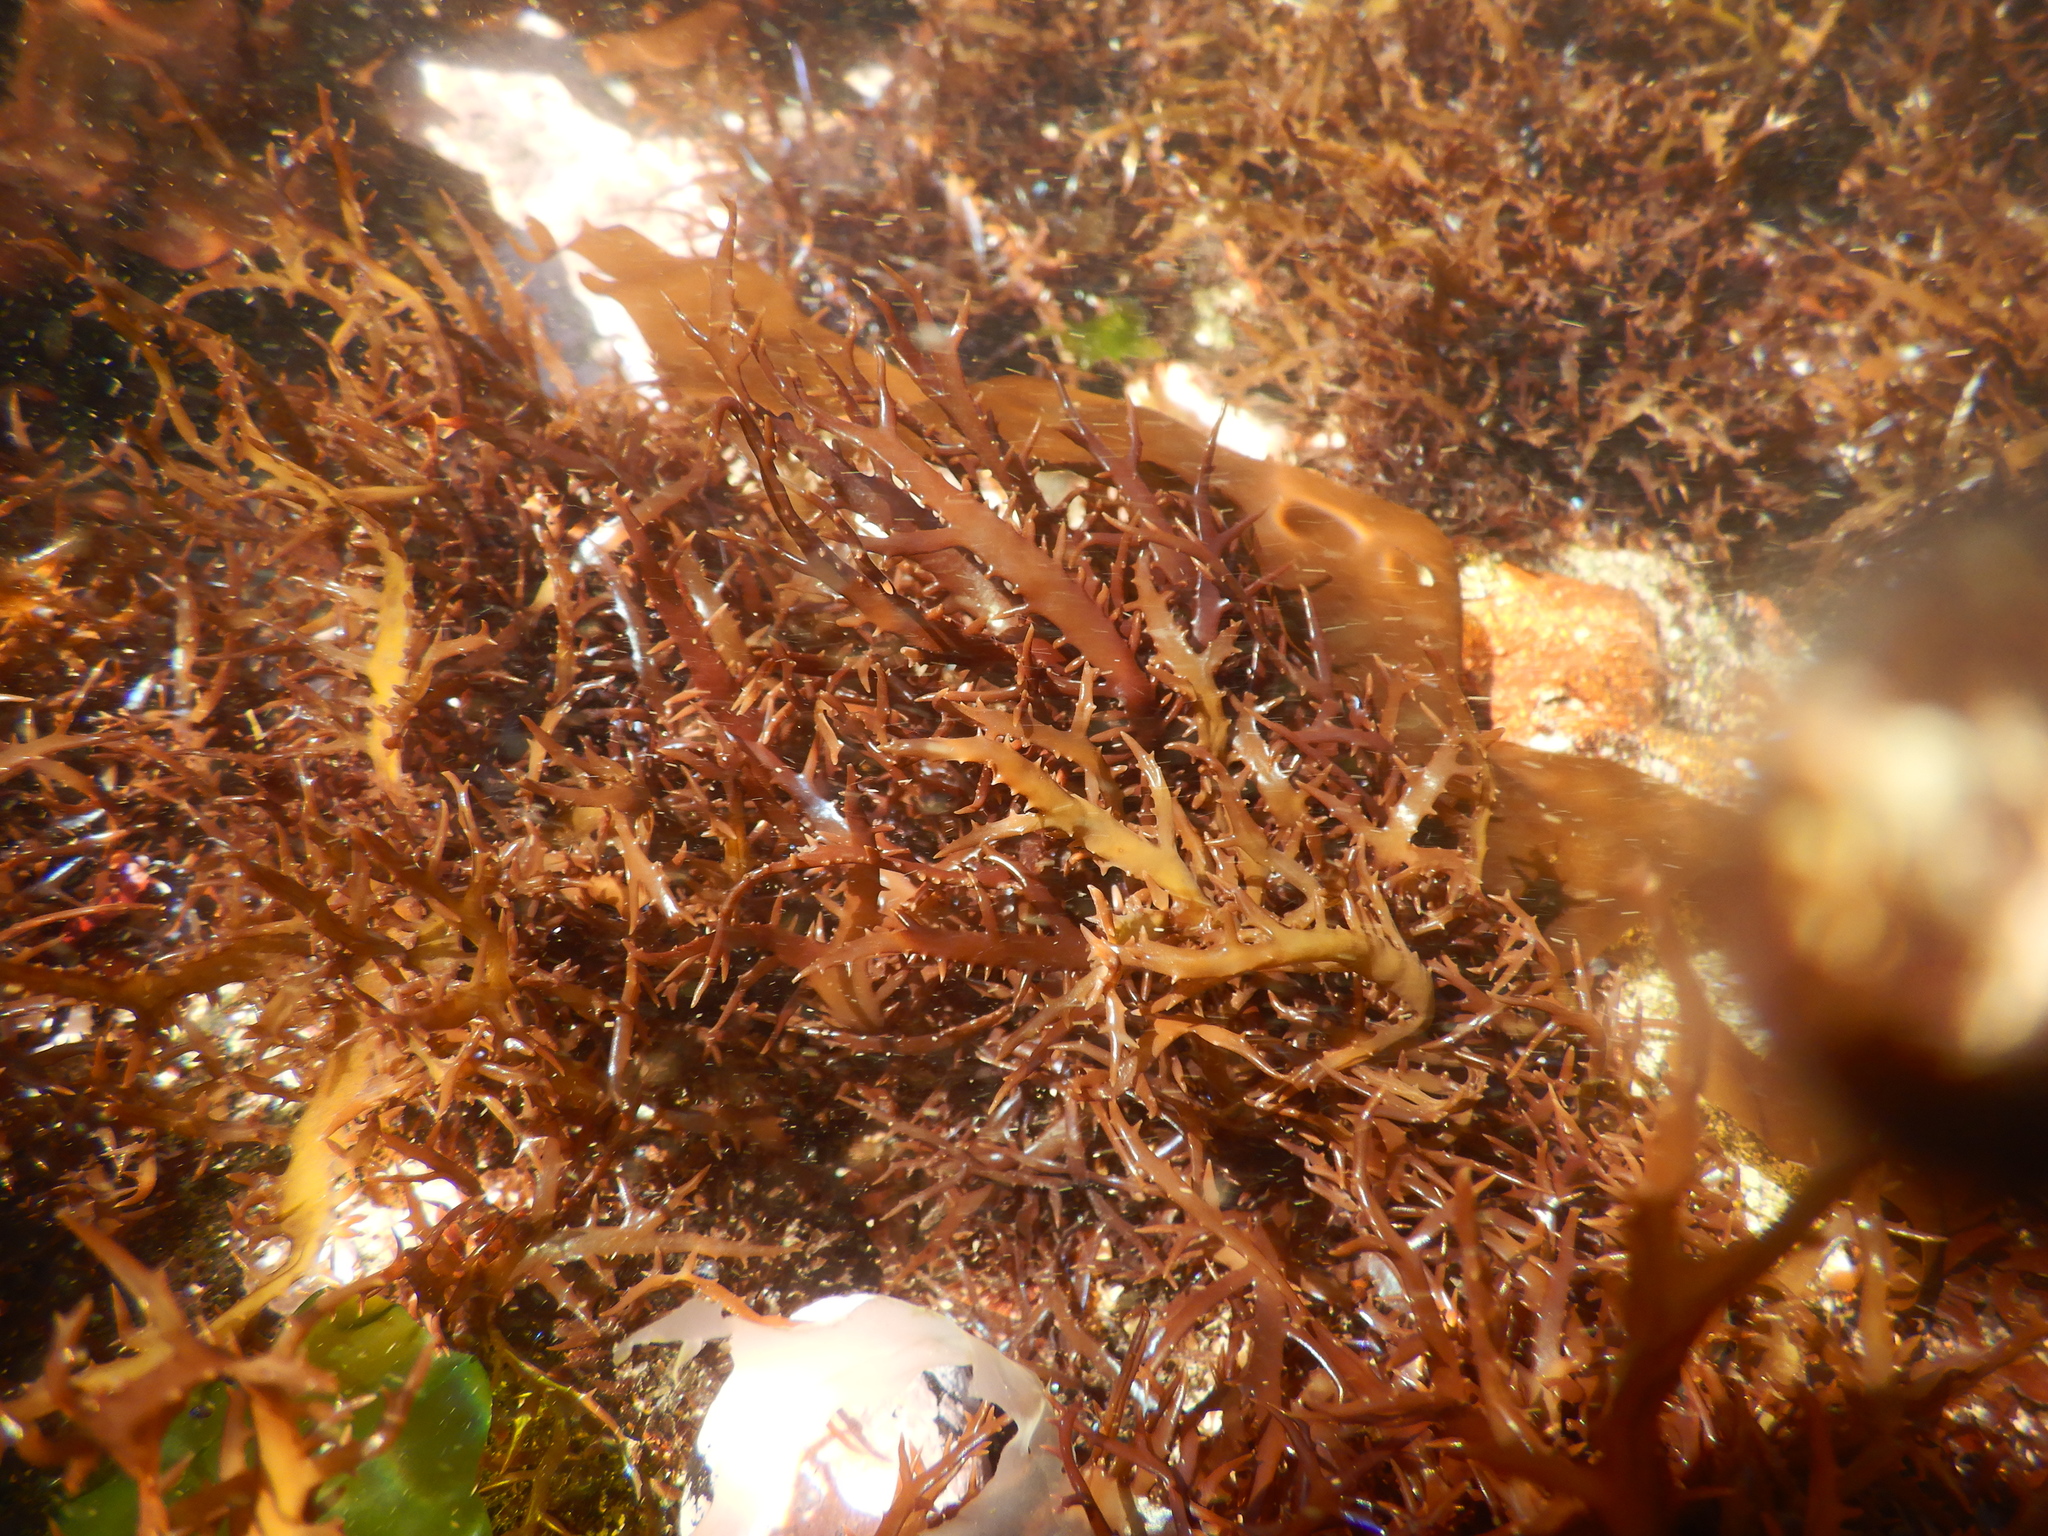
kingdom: Plantae
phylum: Rhodophyta
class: Florideophyceae
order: Gigartinales
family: Gigartinaceae
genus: Chondracanthus
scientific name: Chondracanthus chamissoi
